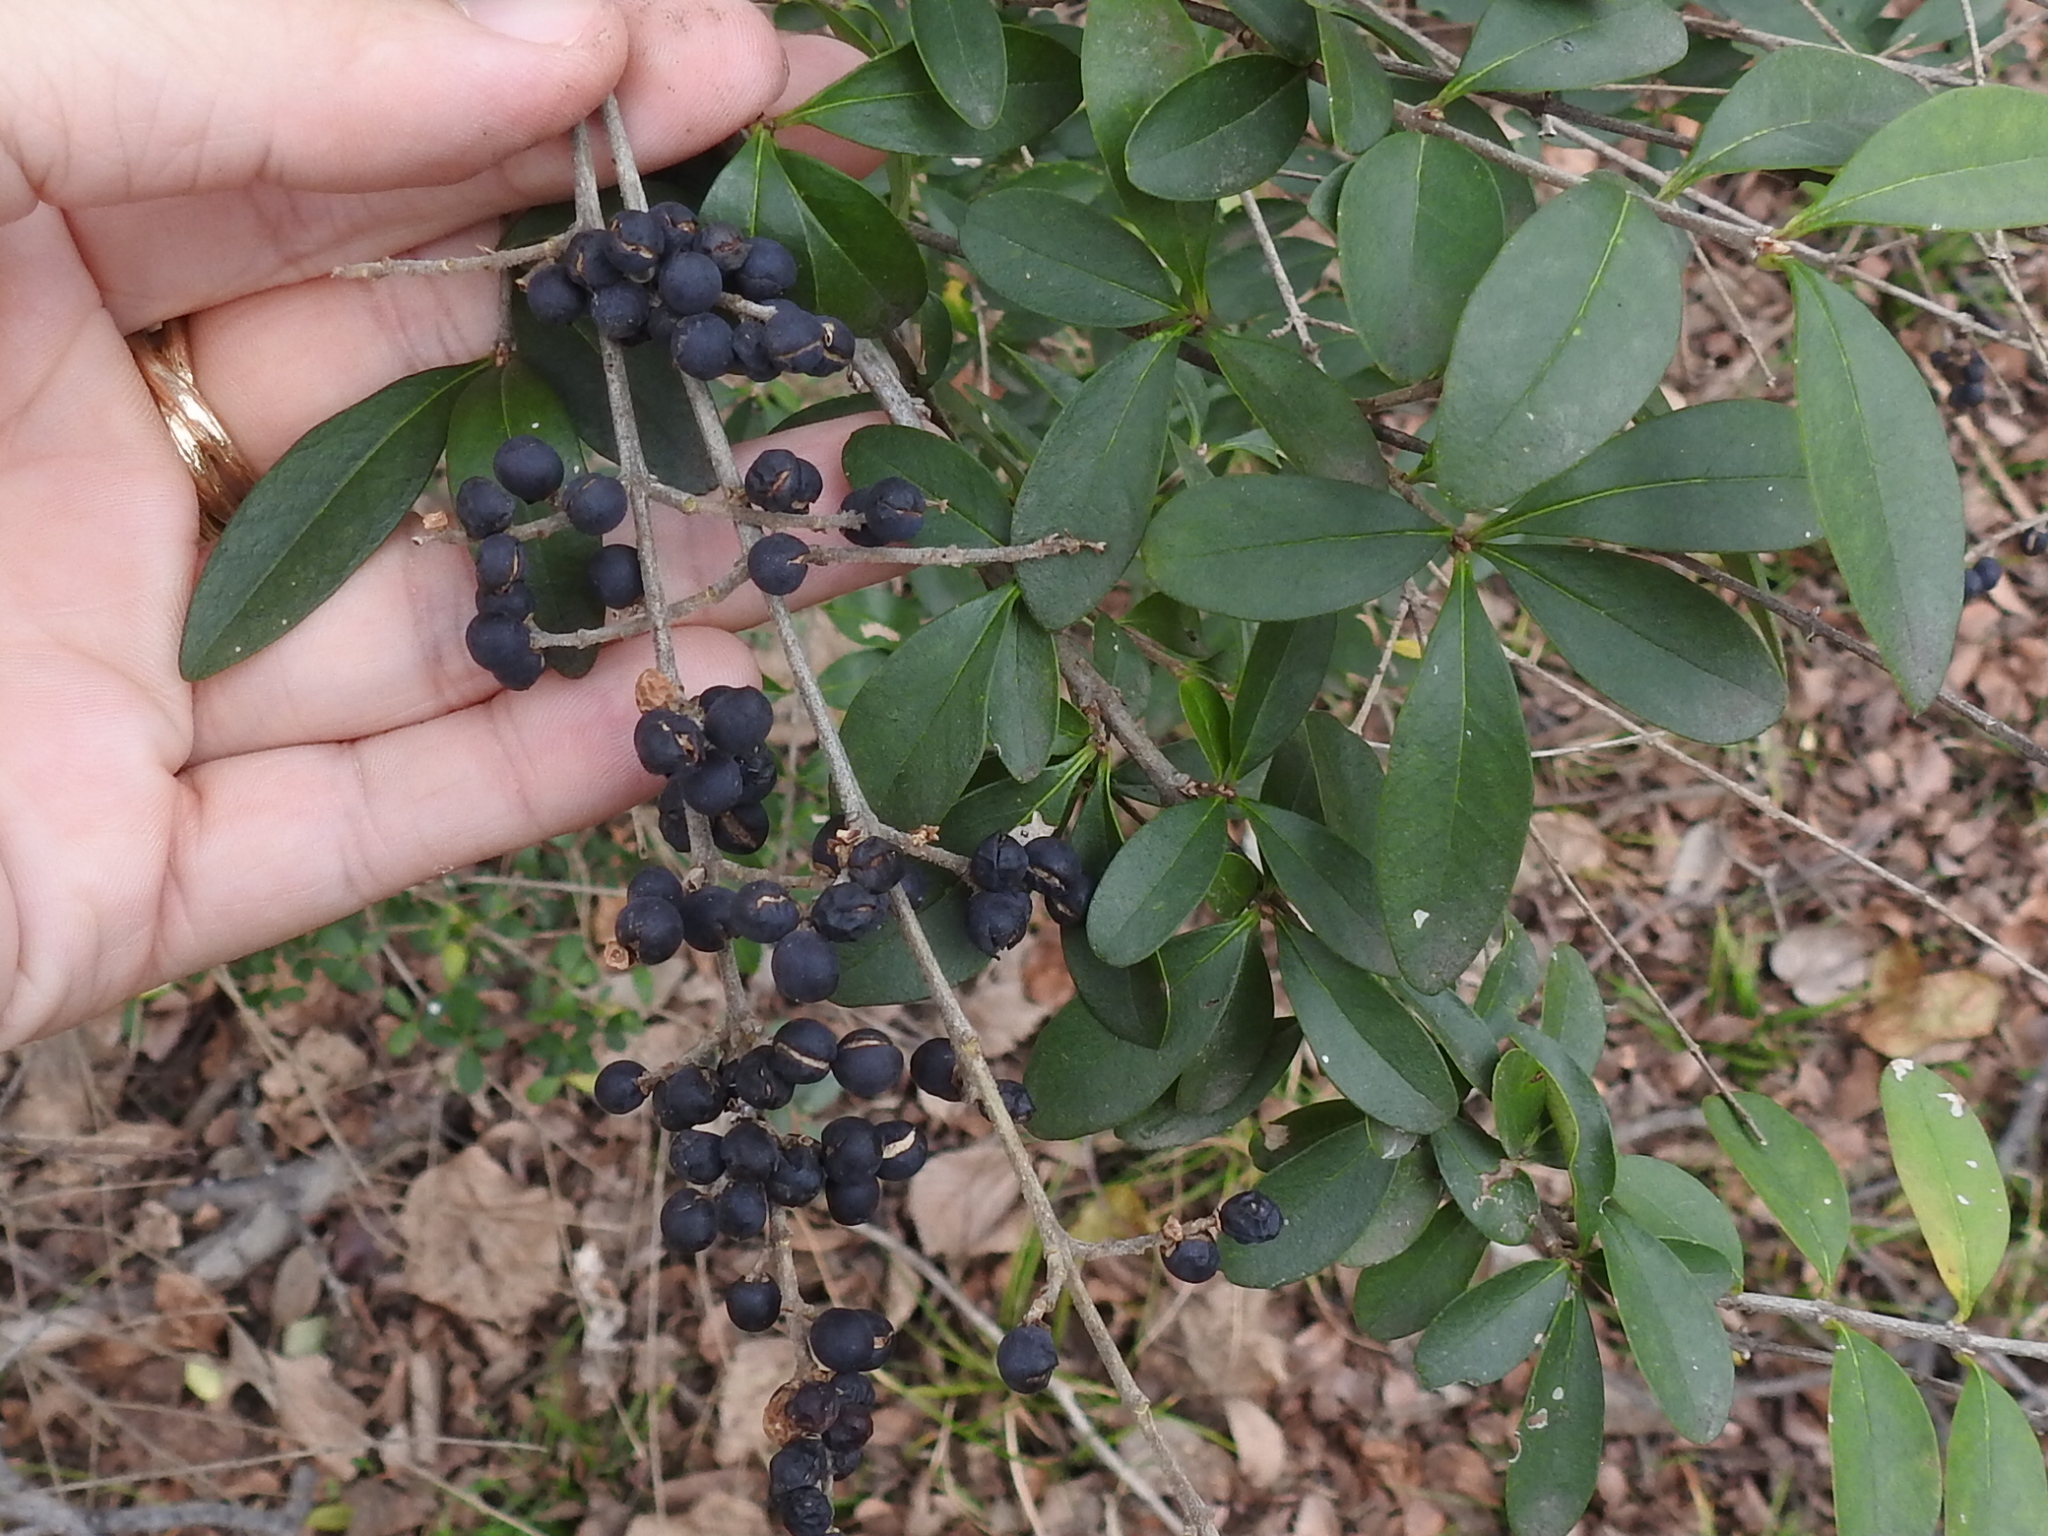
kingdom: Plantae
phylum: Tracheophyta
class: Magnoliopsida
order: Lamiales
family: Oleaceae
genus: Ligustrum
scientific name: Ligustrum quihoui
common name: Waxyleaf privet
